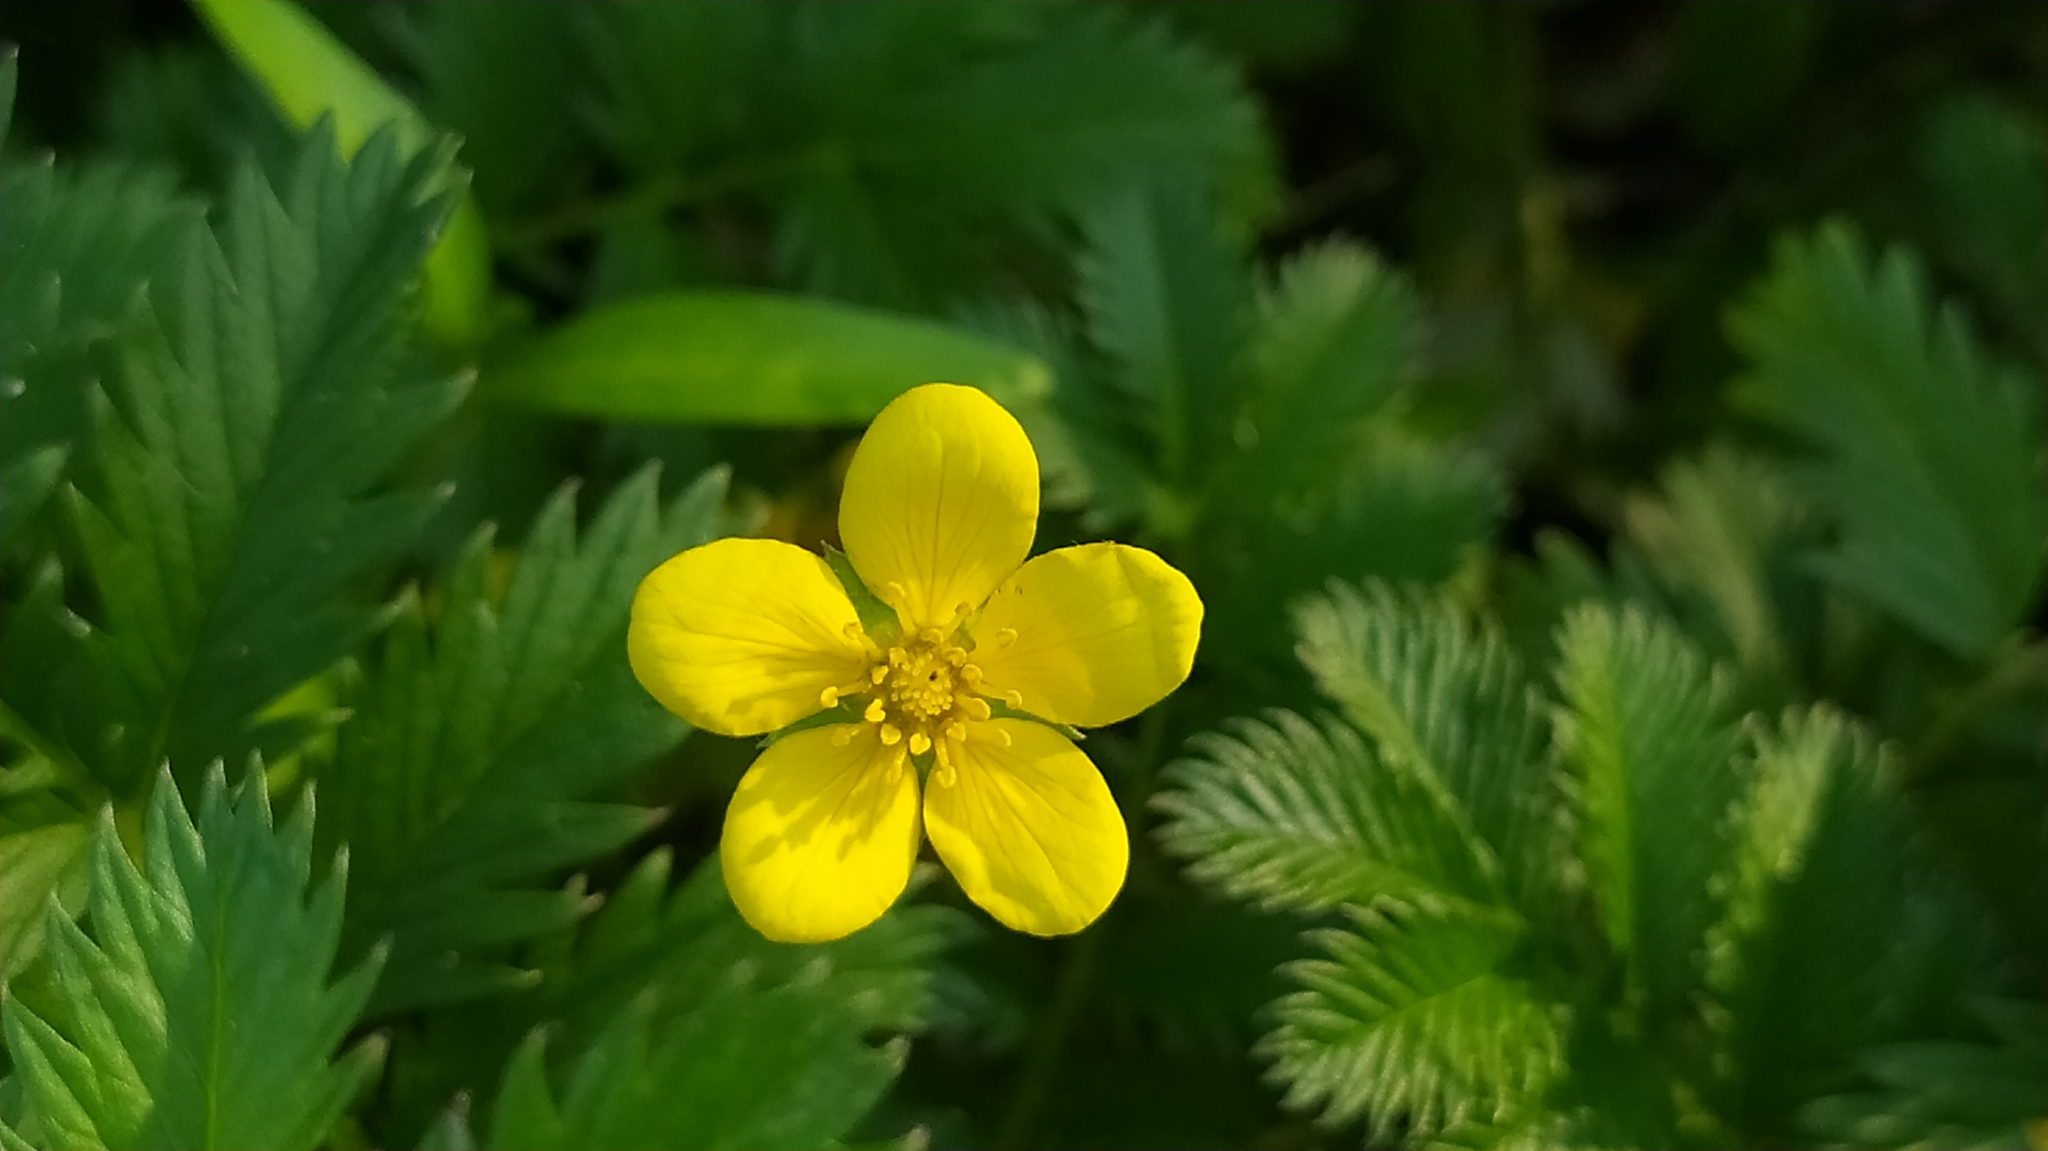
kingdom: Plantae
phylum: Tracheophyta
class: Magnoliopsida
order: Rosales
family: Rosaceae
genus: Argentina
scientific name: Argentina anserina
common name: Common silverweed
